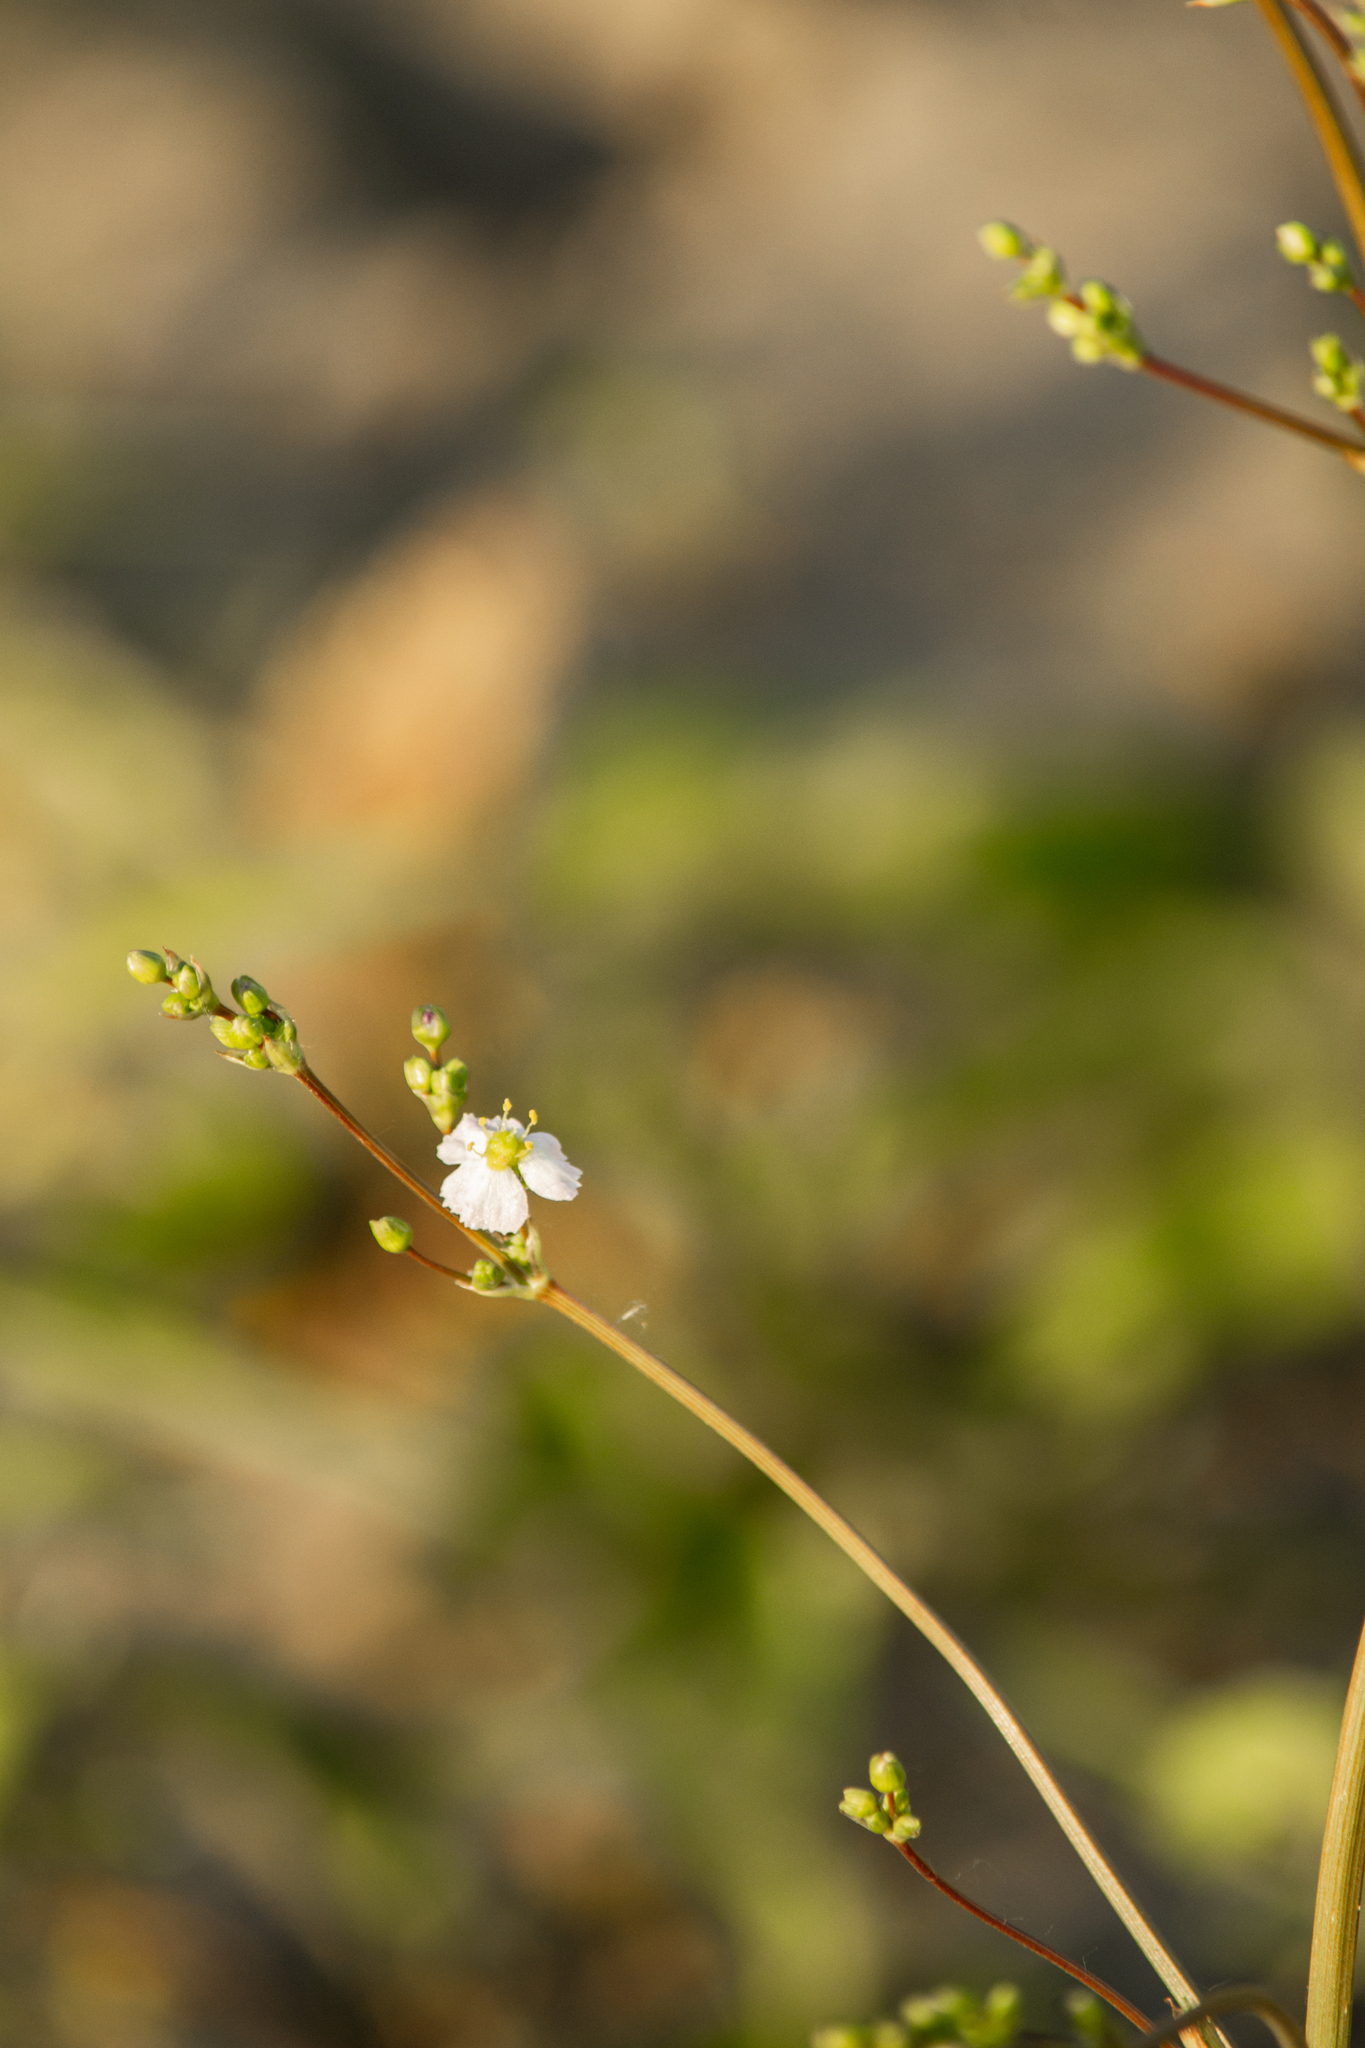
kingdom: Plantae
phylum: Tracheophyta
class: Liliopsida
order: Alismatales
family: Alismataceae
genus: Alisma
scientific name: Alisma plantago-aquatica
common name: Water-plantain
